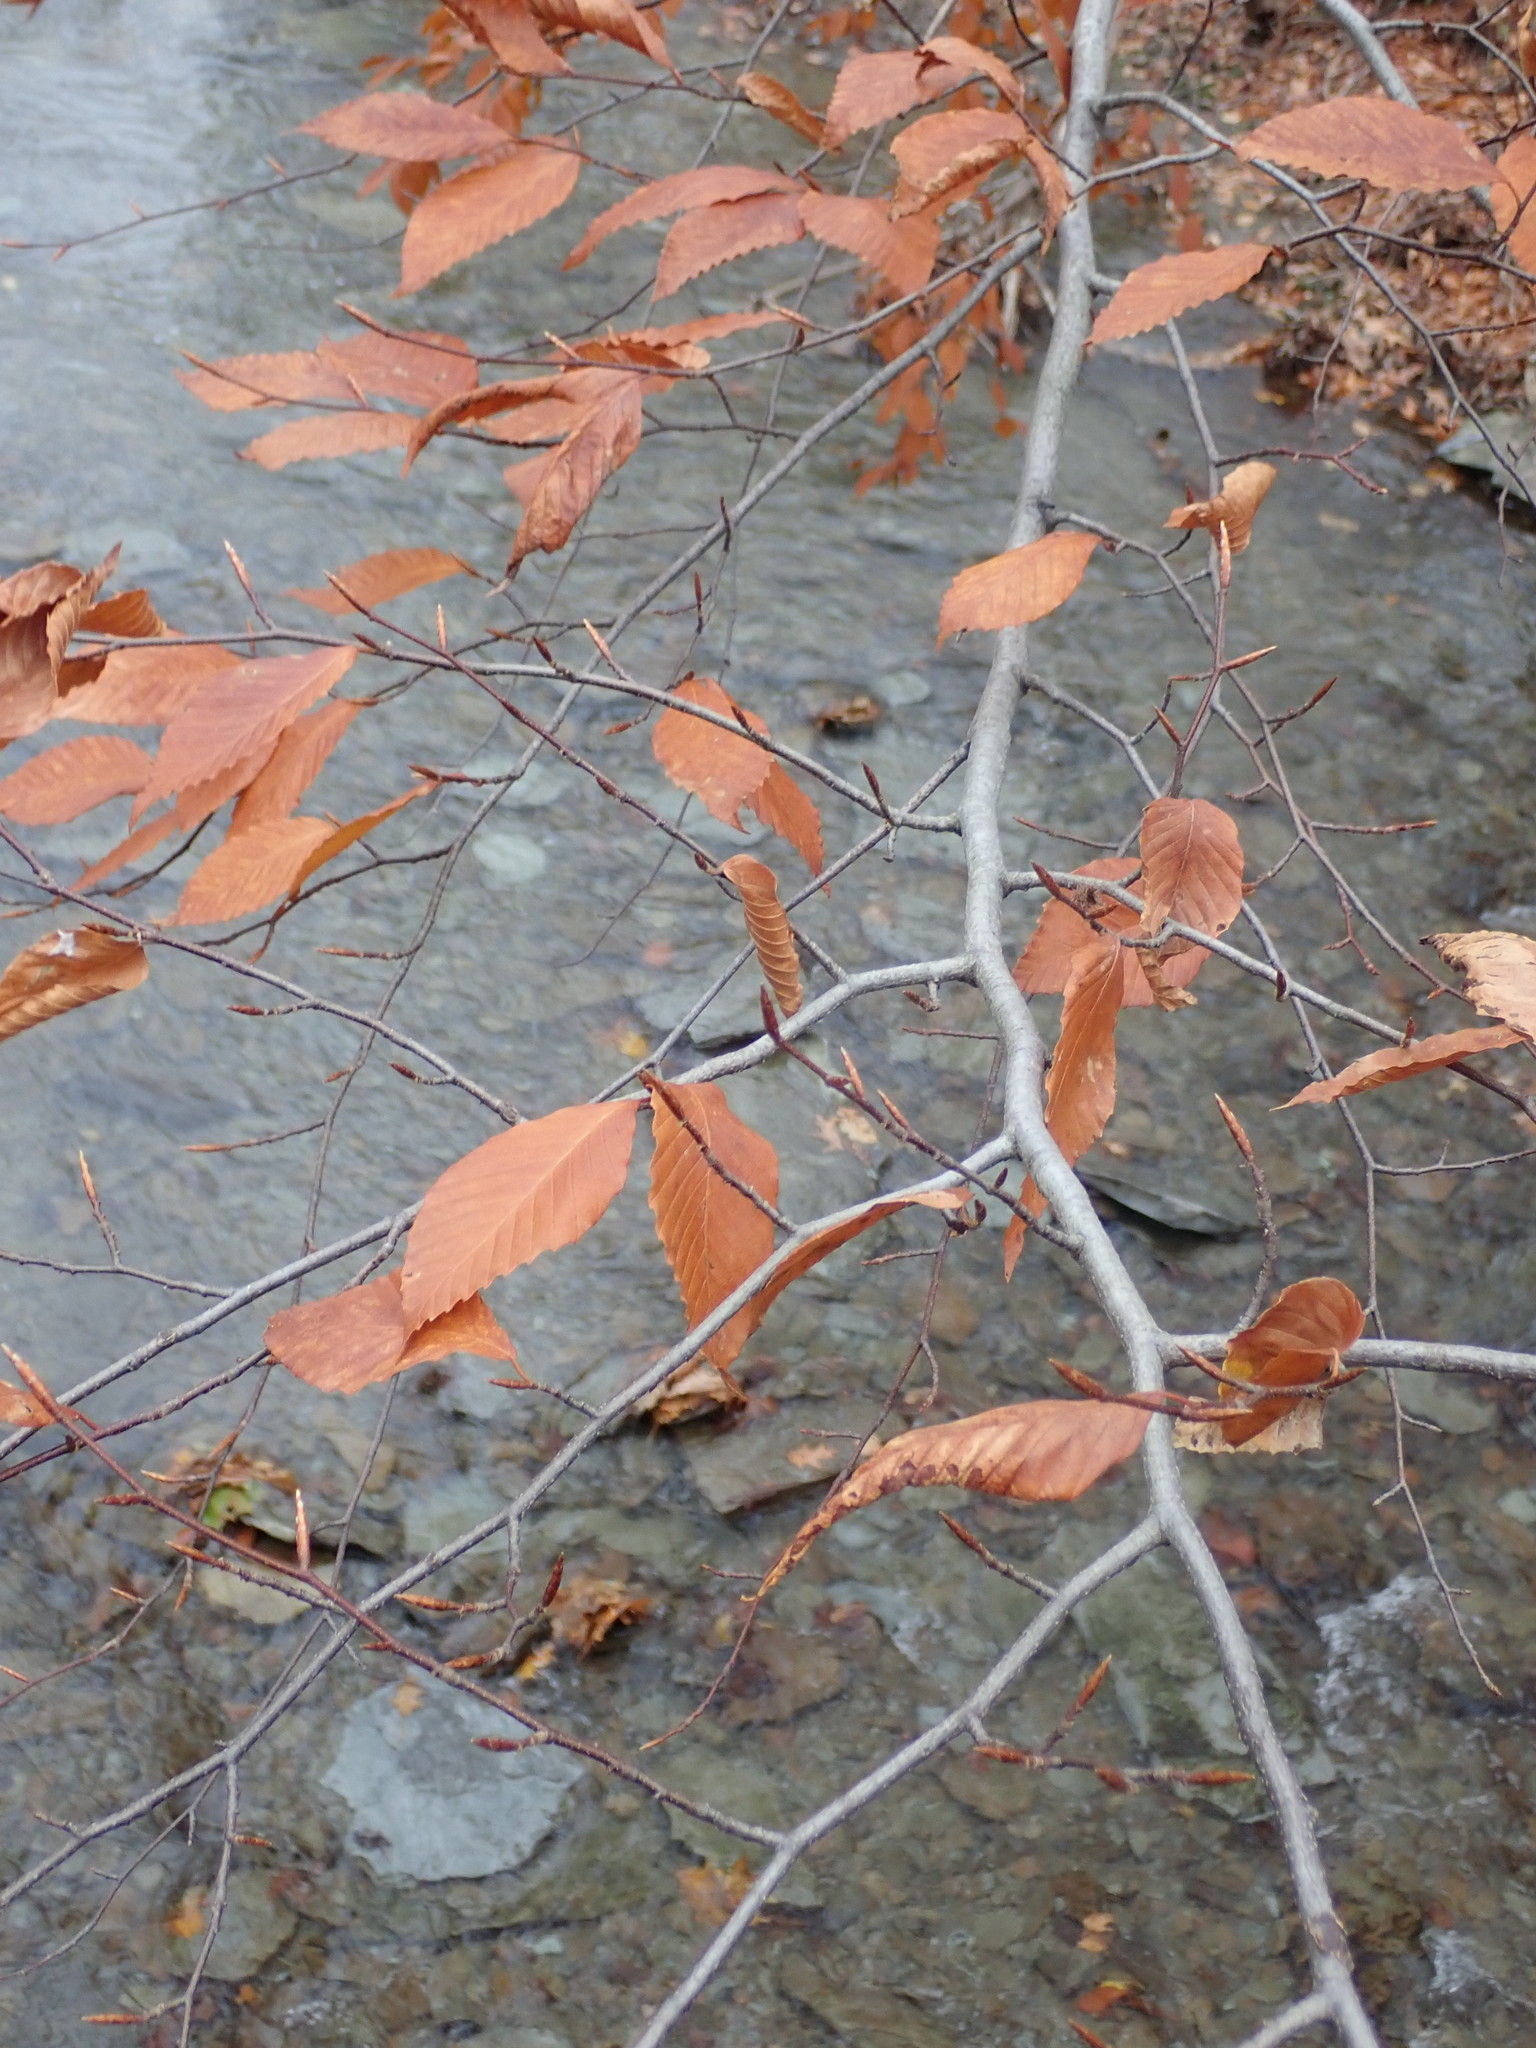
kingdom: Plantae
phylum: Tracheophyta
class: Magnoliopsida
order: Fagales
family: Fagaceae
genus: Fagus
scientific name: Fagus grandifolia
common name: American beech
